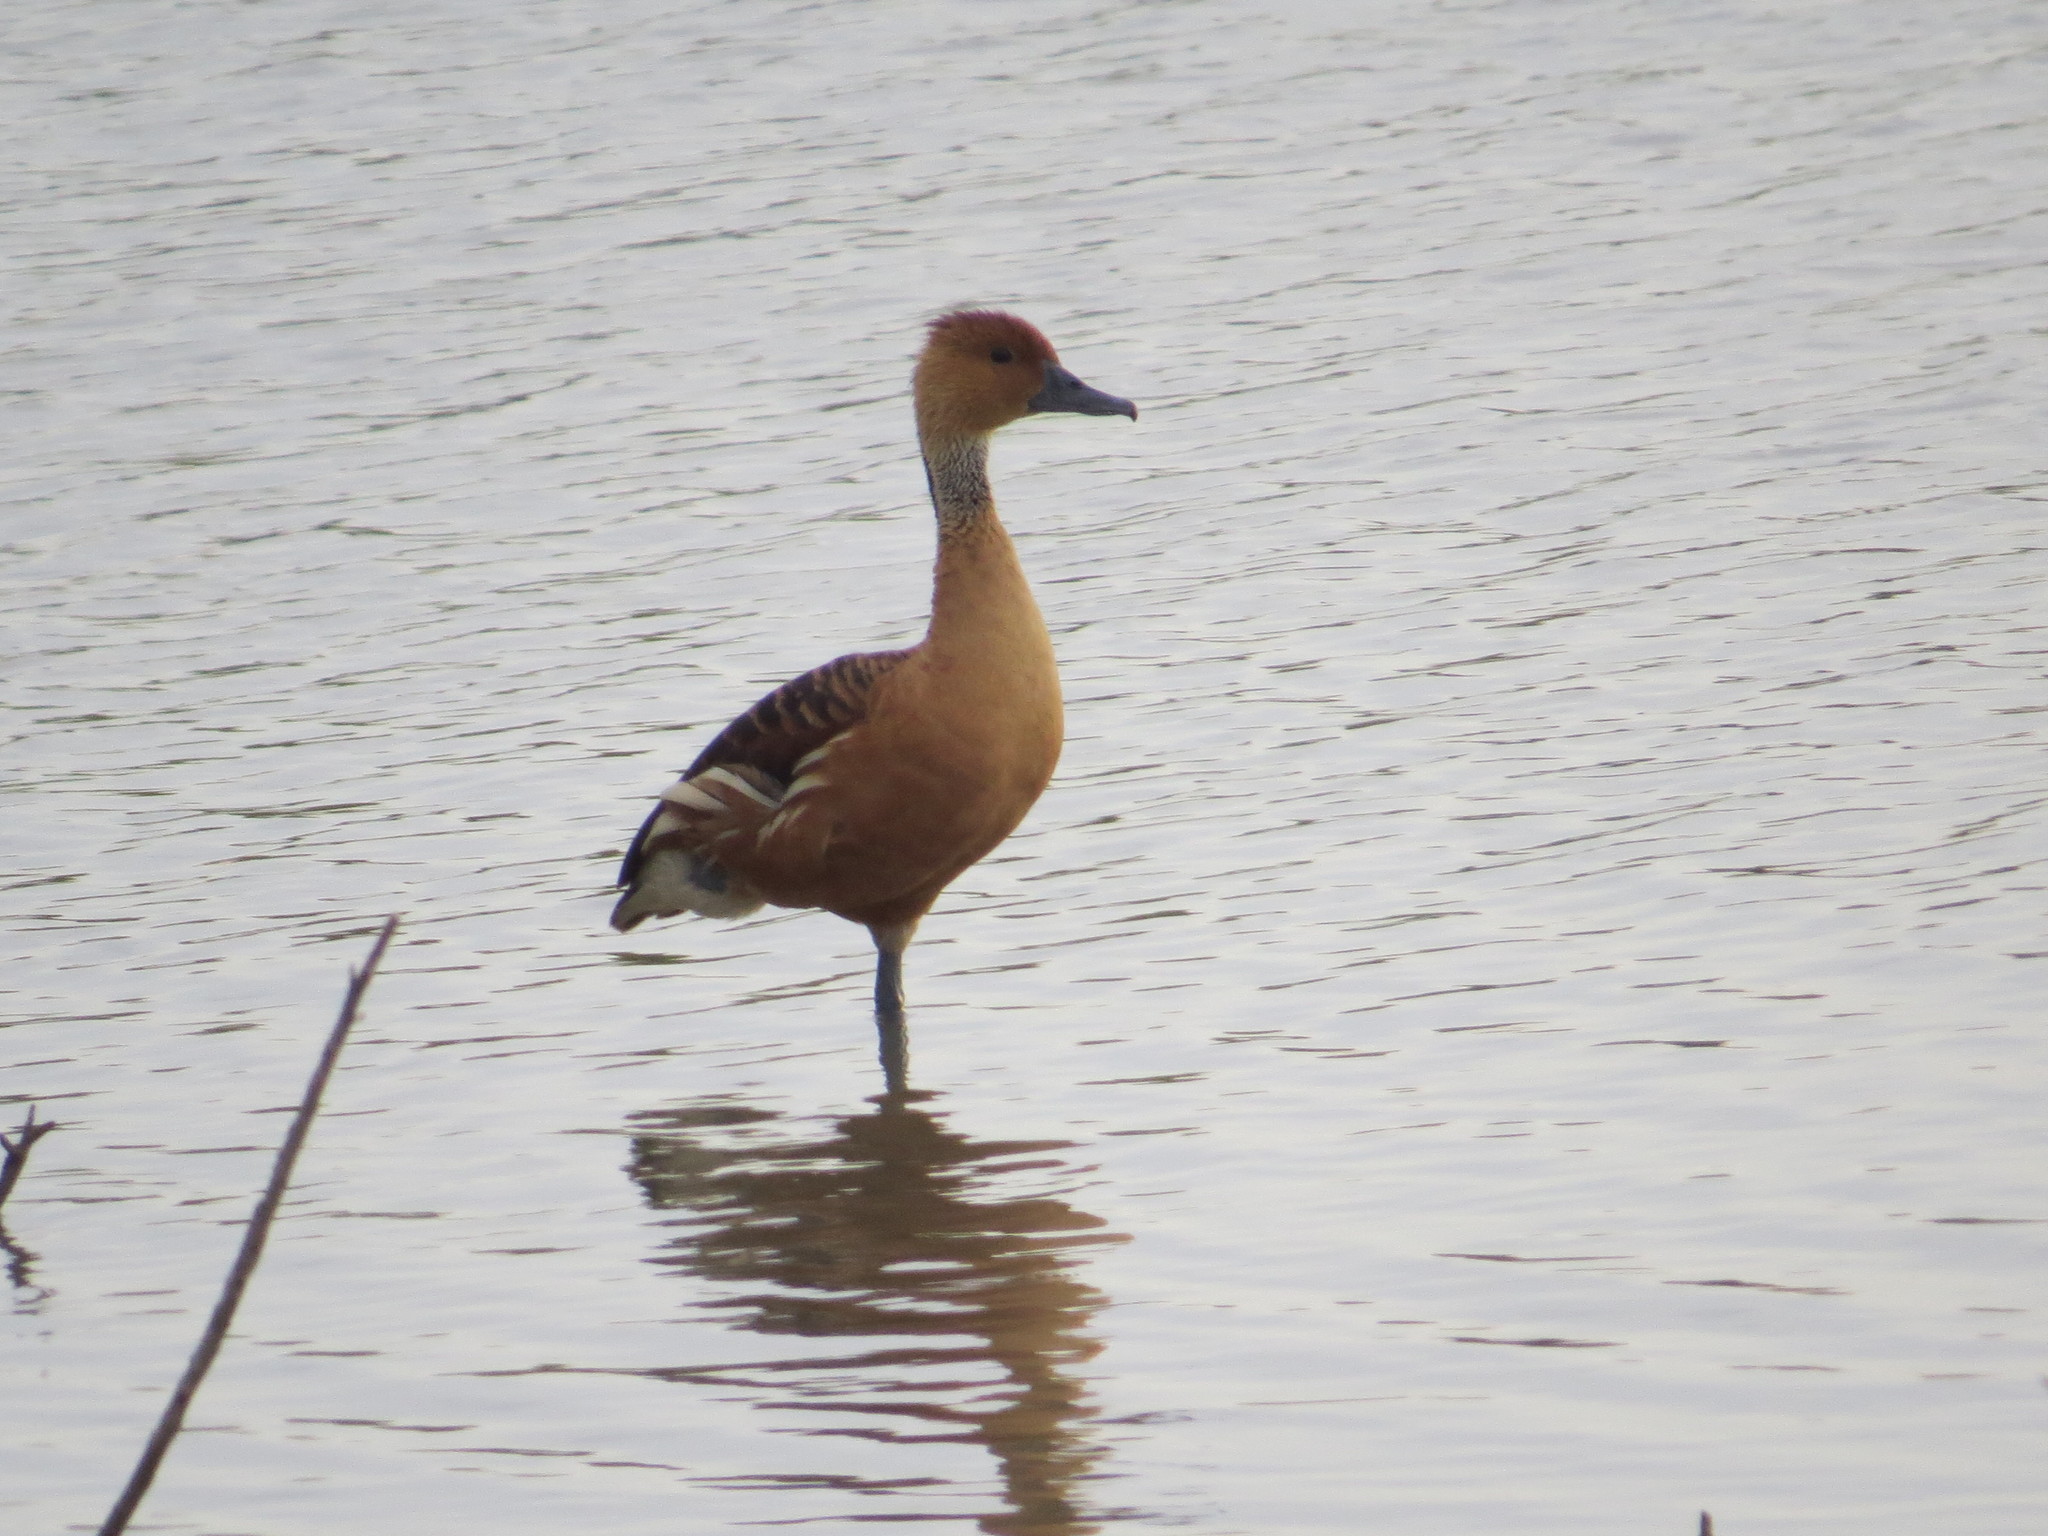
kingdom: Animalia
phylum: Chordata
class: Aves
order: Anseriformes
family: Anatidae
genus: Dendrocygna
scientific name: Dendrocygna bicolor
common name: Fulvous whistling duck
